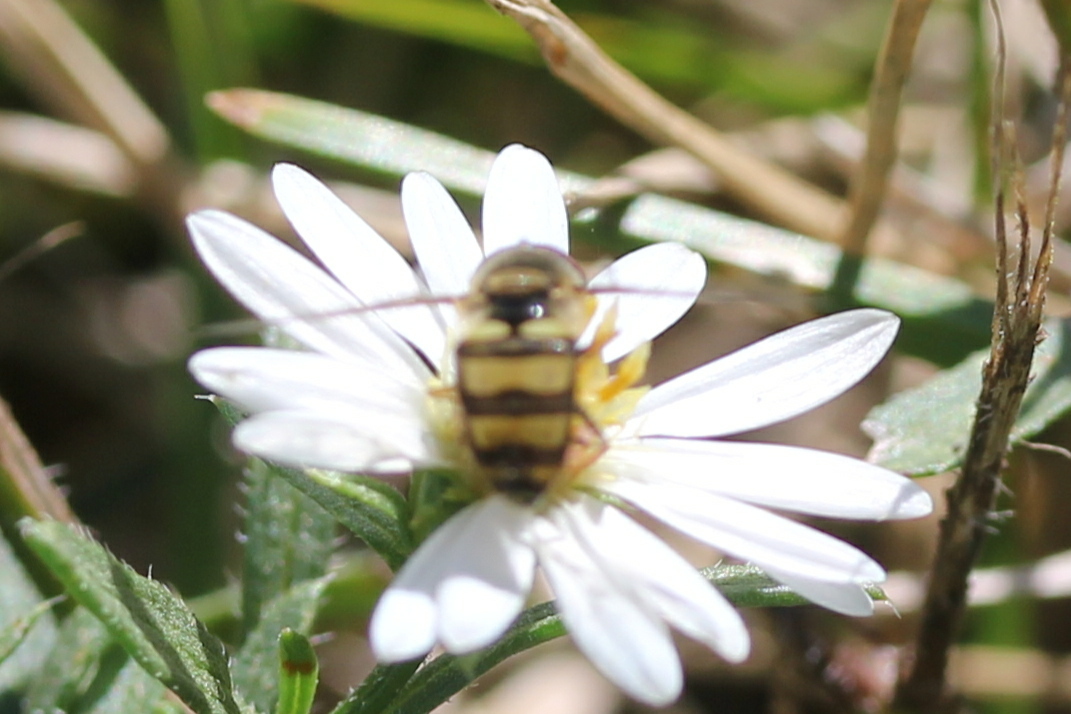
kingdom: Animalia
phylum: Arthropoda
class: Insecta
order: Diptera
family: Syrphidae
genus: Eupeodes
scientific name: Eupeodes
